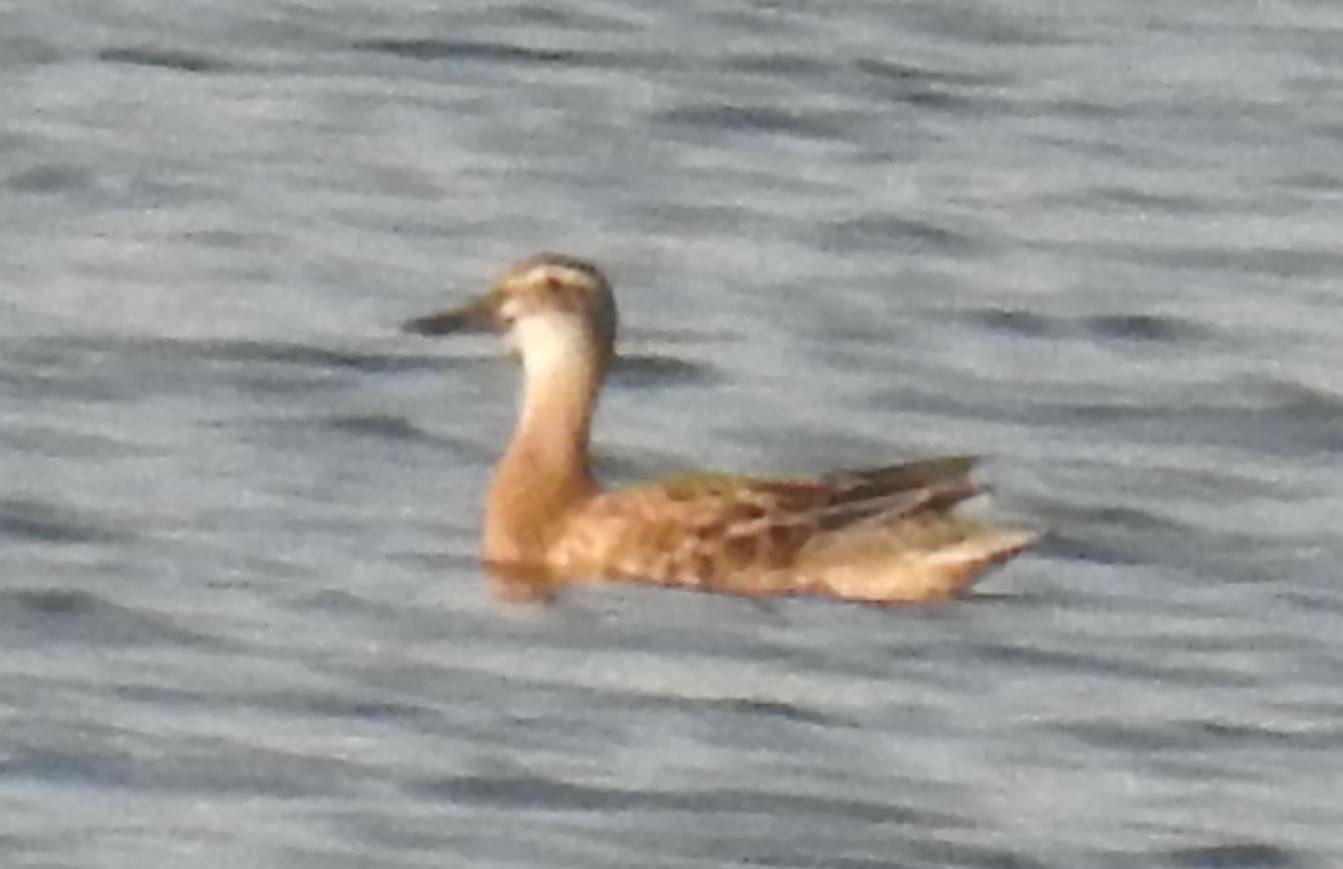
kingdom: Animalia
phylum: Chordata
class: Aves
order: Anseriformes
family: Anatidae
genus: Spatula
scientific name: Spatula querquedula
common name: Garganey
